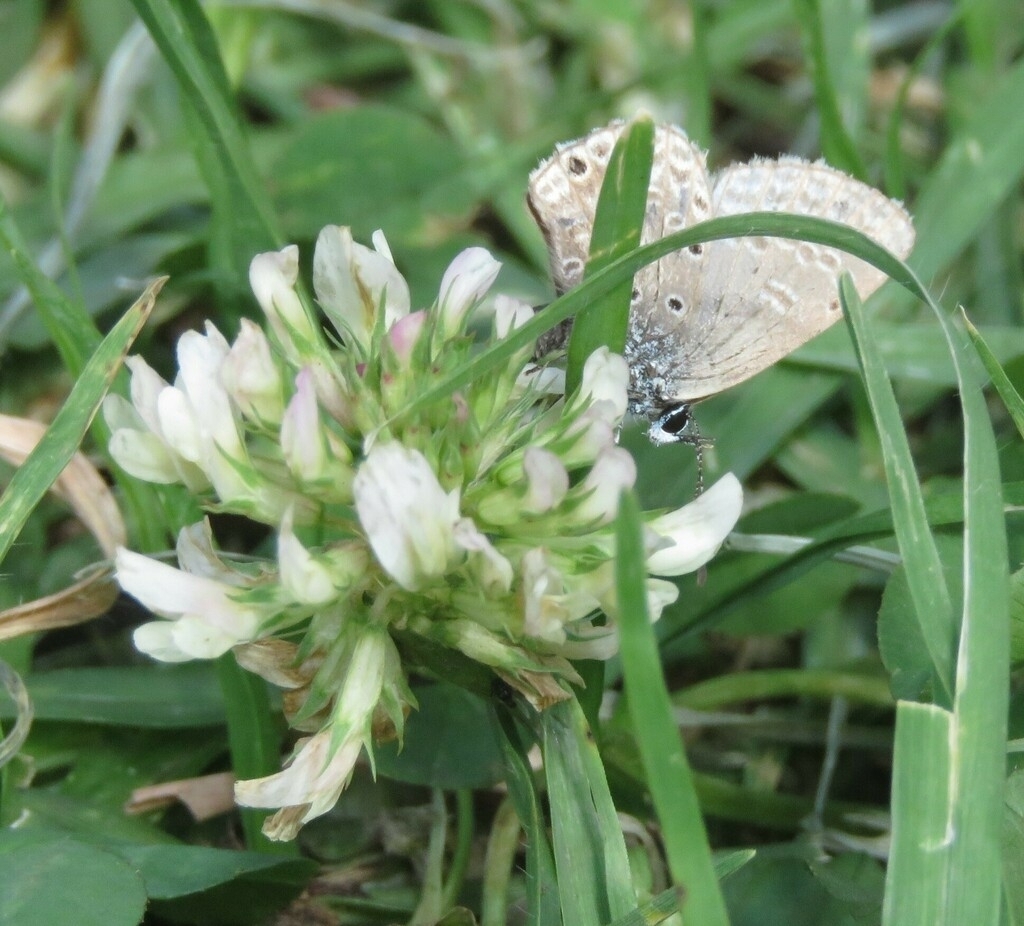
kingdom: Plantae
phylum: Tracheophyta
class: Magnoliopsida
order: Fabales
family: Fabaceae
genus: Trifolium
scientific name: Trifolium repens
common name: White clover
